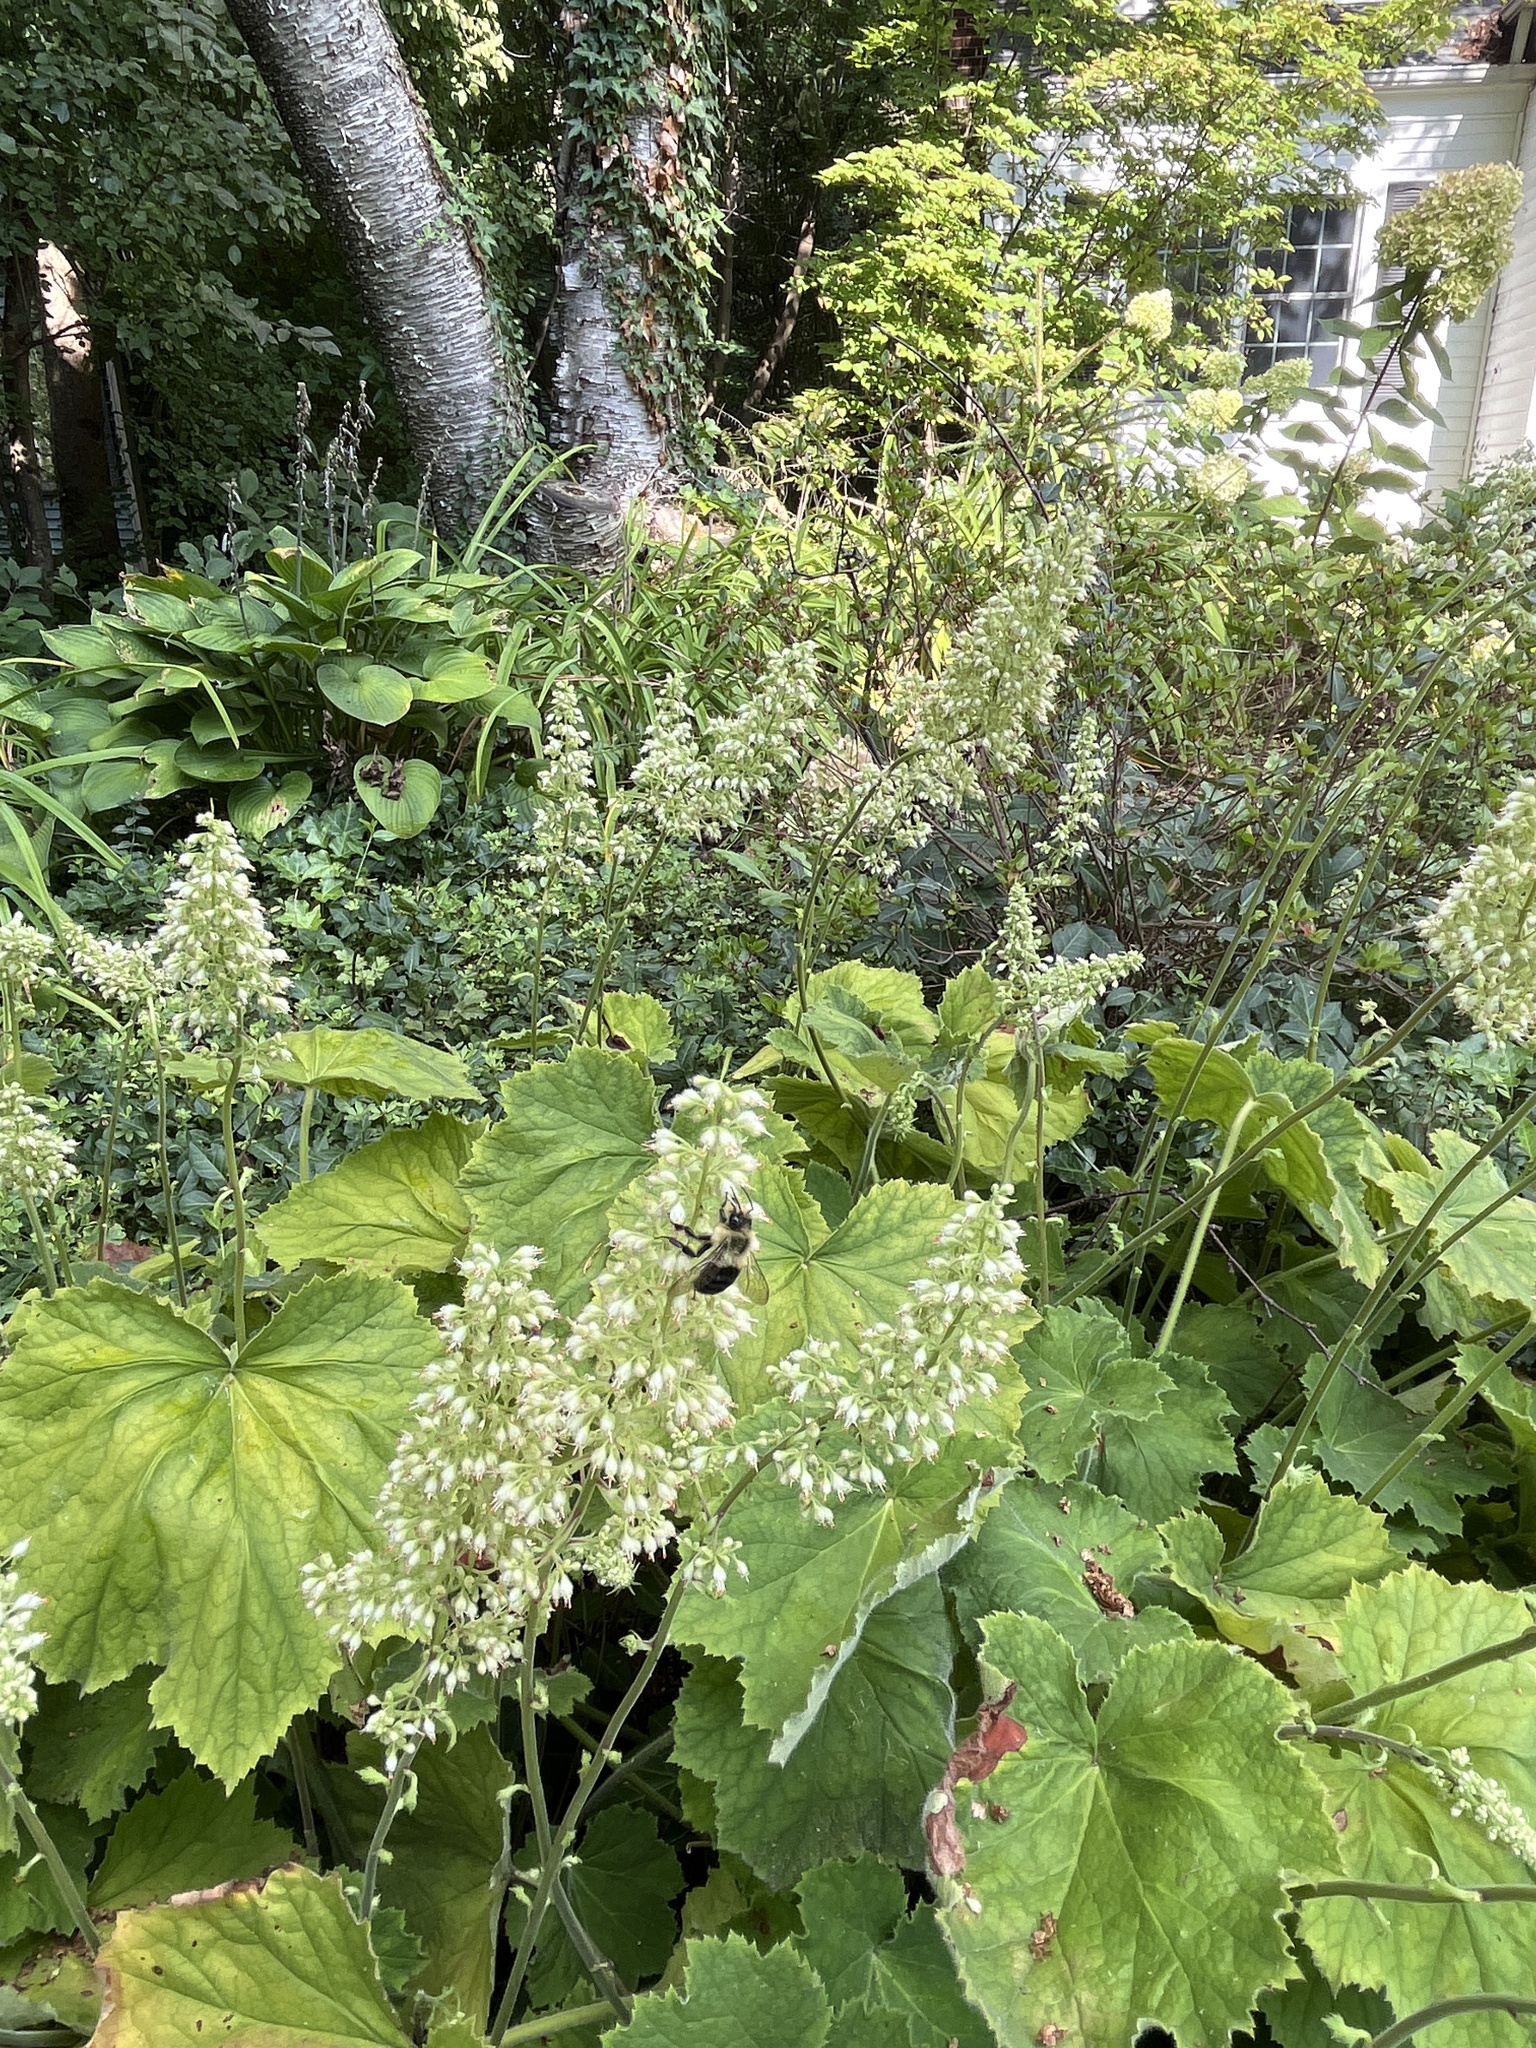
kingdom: Animalia
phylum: Arthropoda
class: Insecta
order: Hymenoptera
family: Apidae
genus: Bombus
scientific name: Bombus impatiens
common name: Common eastern bumble bee
